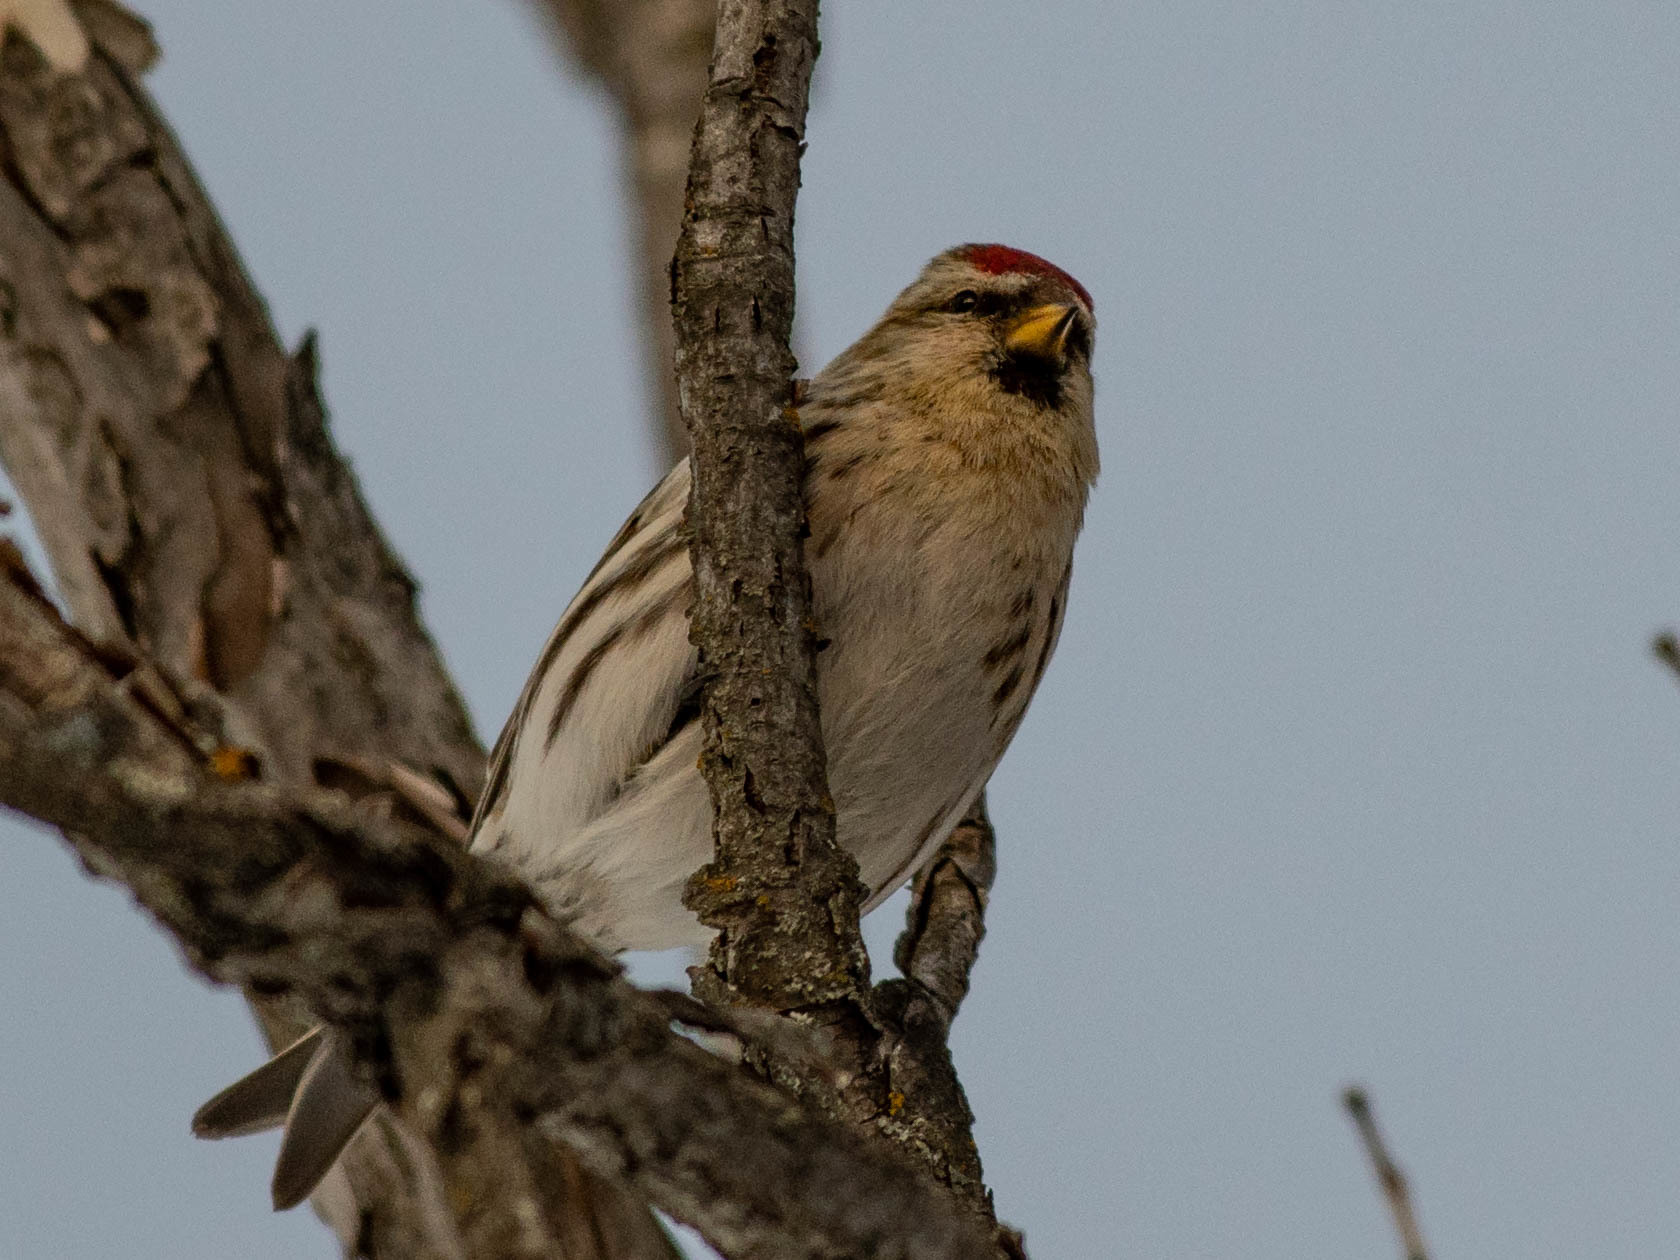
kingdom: Animalia
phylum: Chordata
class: Aves
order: Passeriformes
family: Fringillidae
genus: Acanthis
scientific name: Acanthis flammea
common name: Common redpoll
